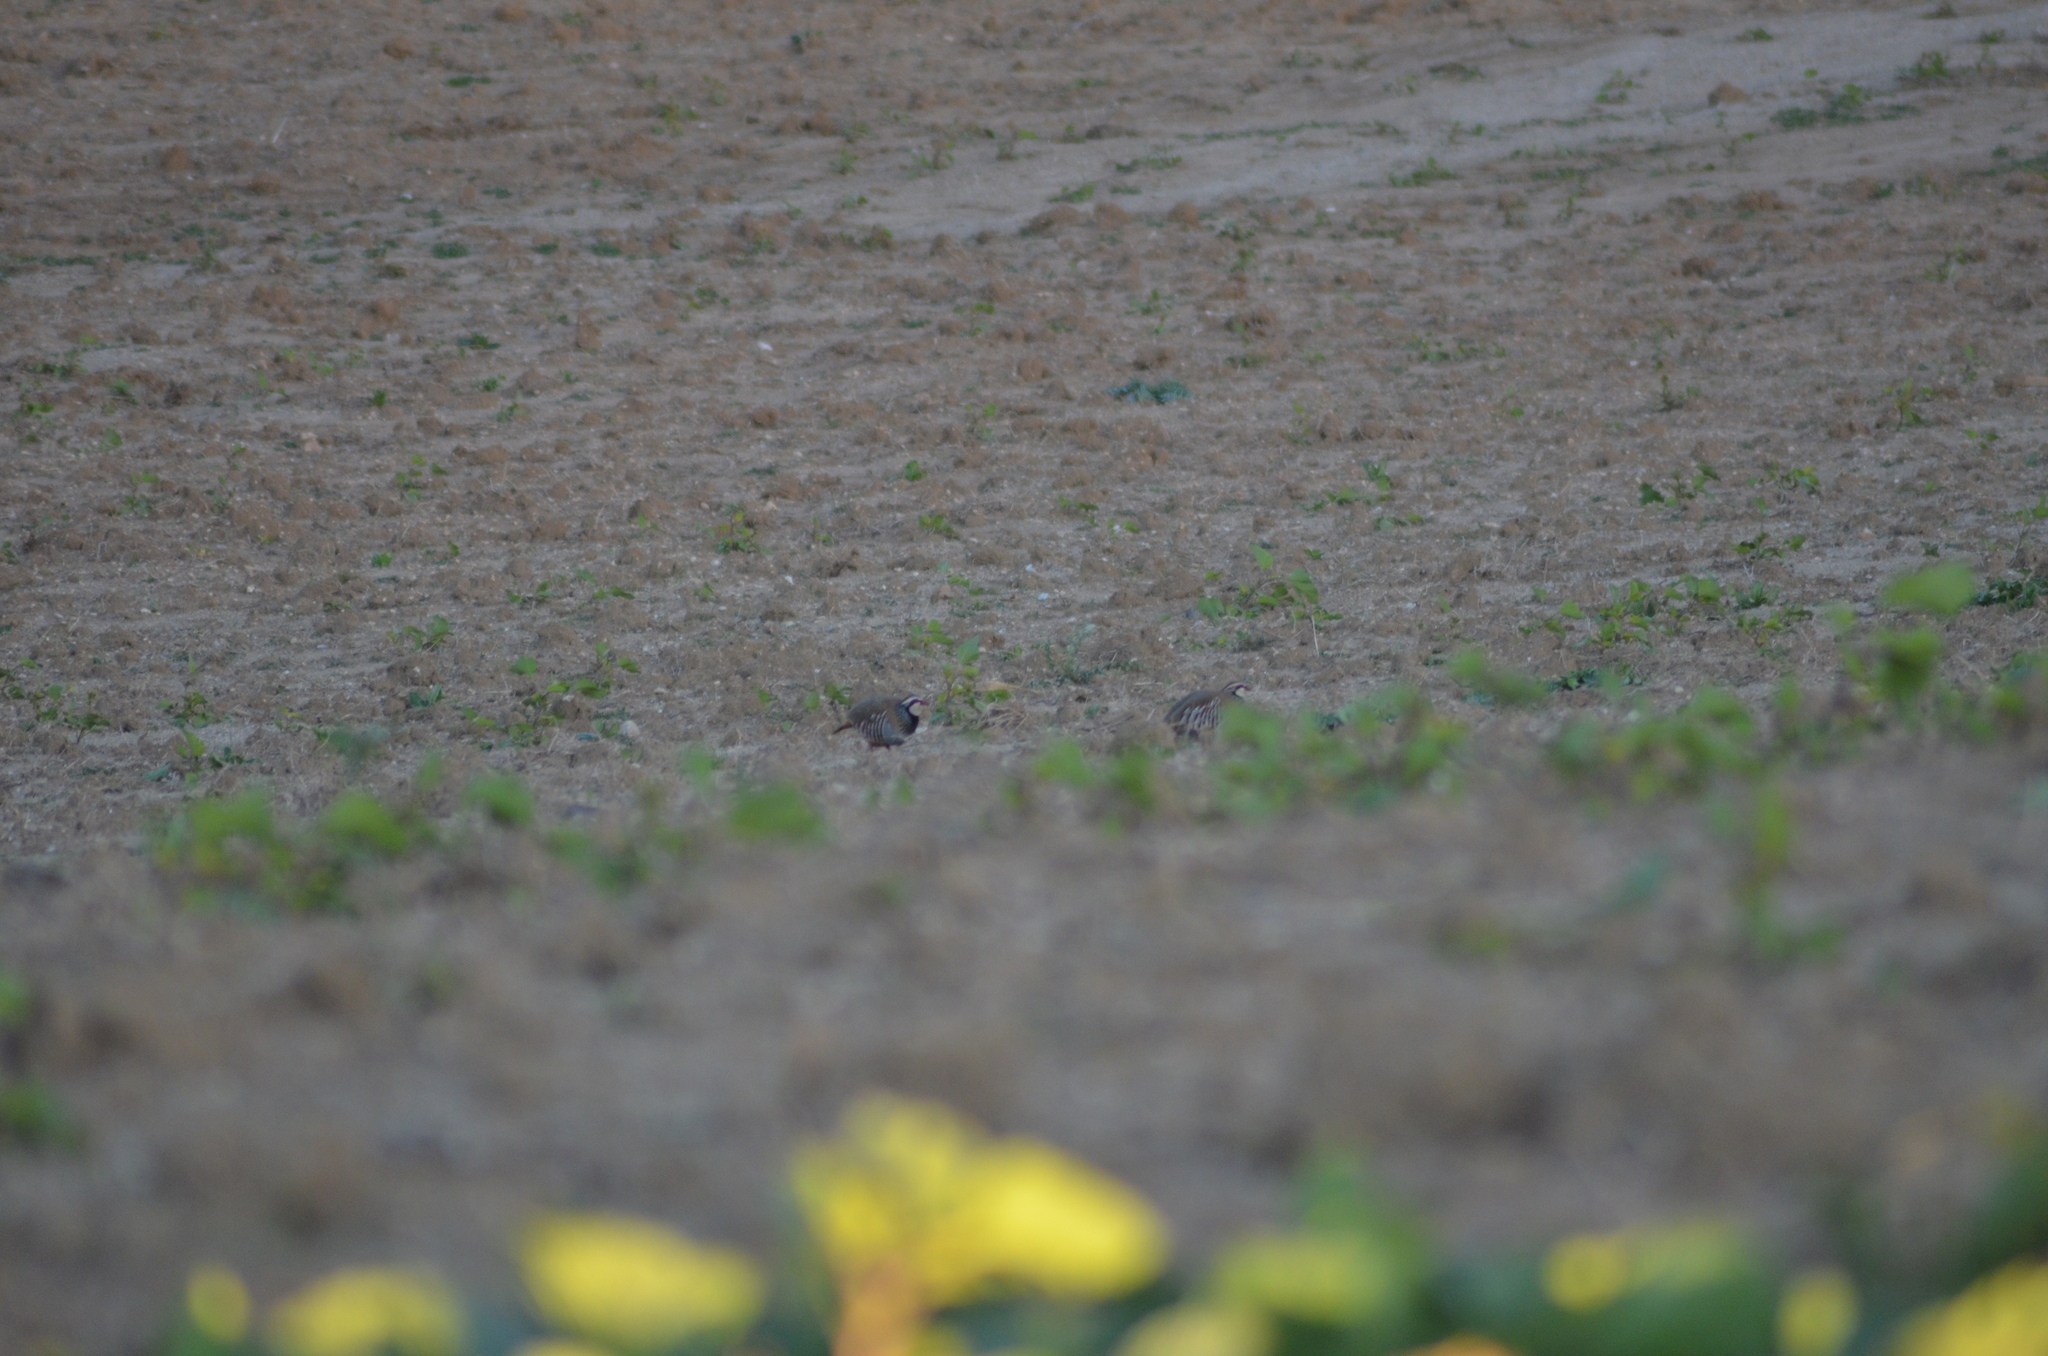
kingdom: Animalia
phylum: Chordata
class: Aves
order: Galliformes
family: Phasianidae
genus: Alectoris
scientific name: Alectoris rufa
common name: Red-legged partridge
